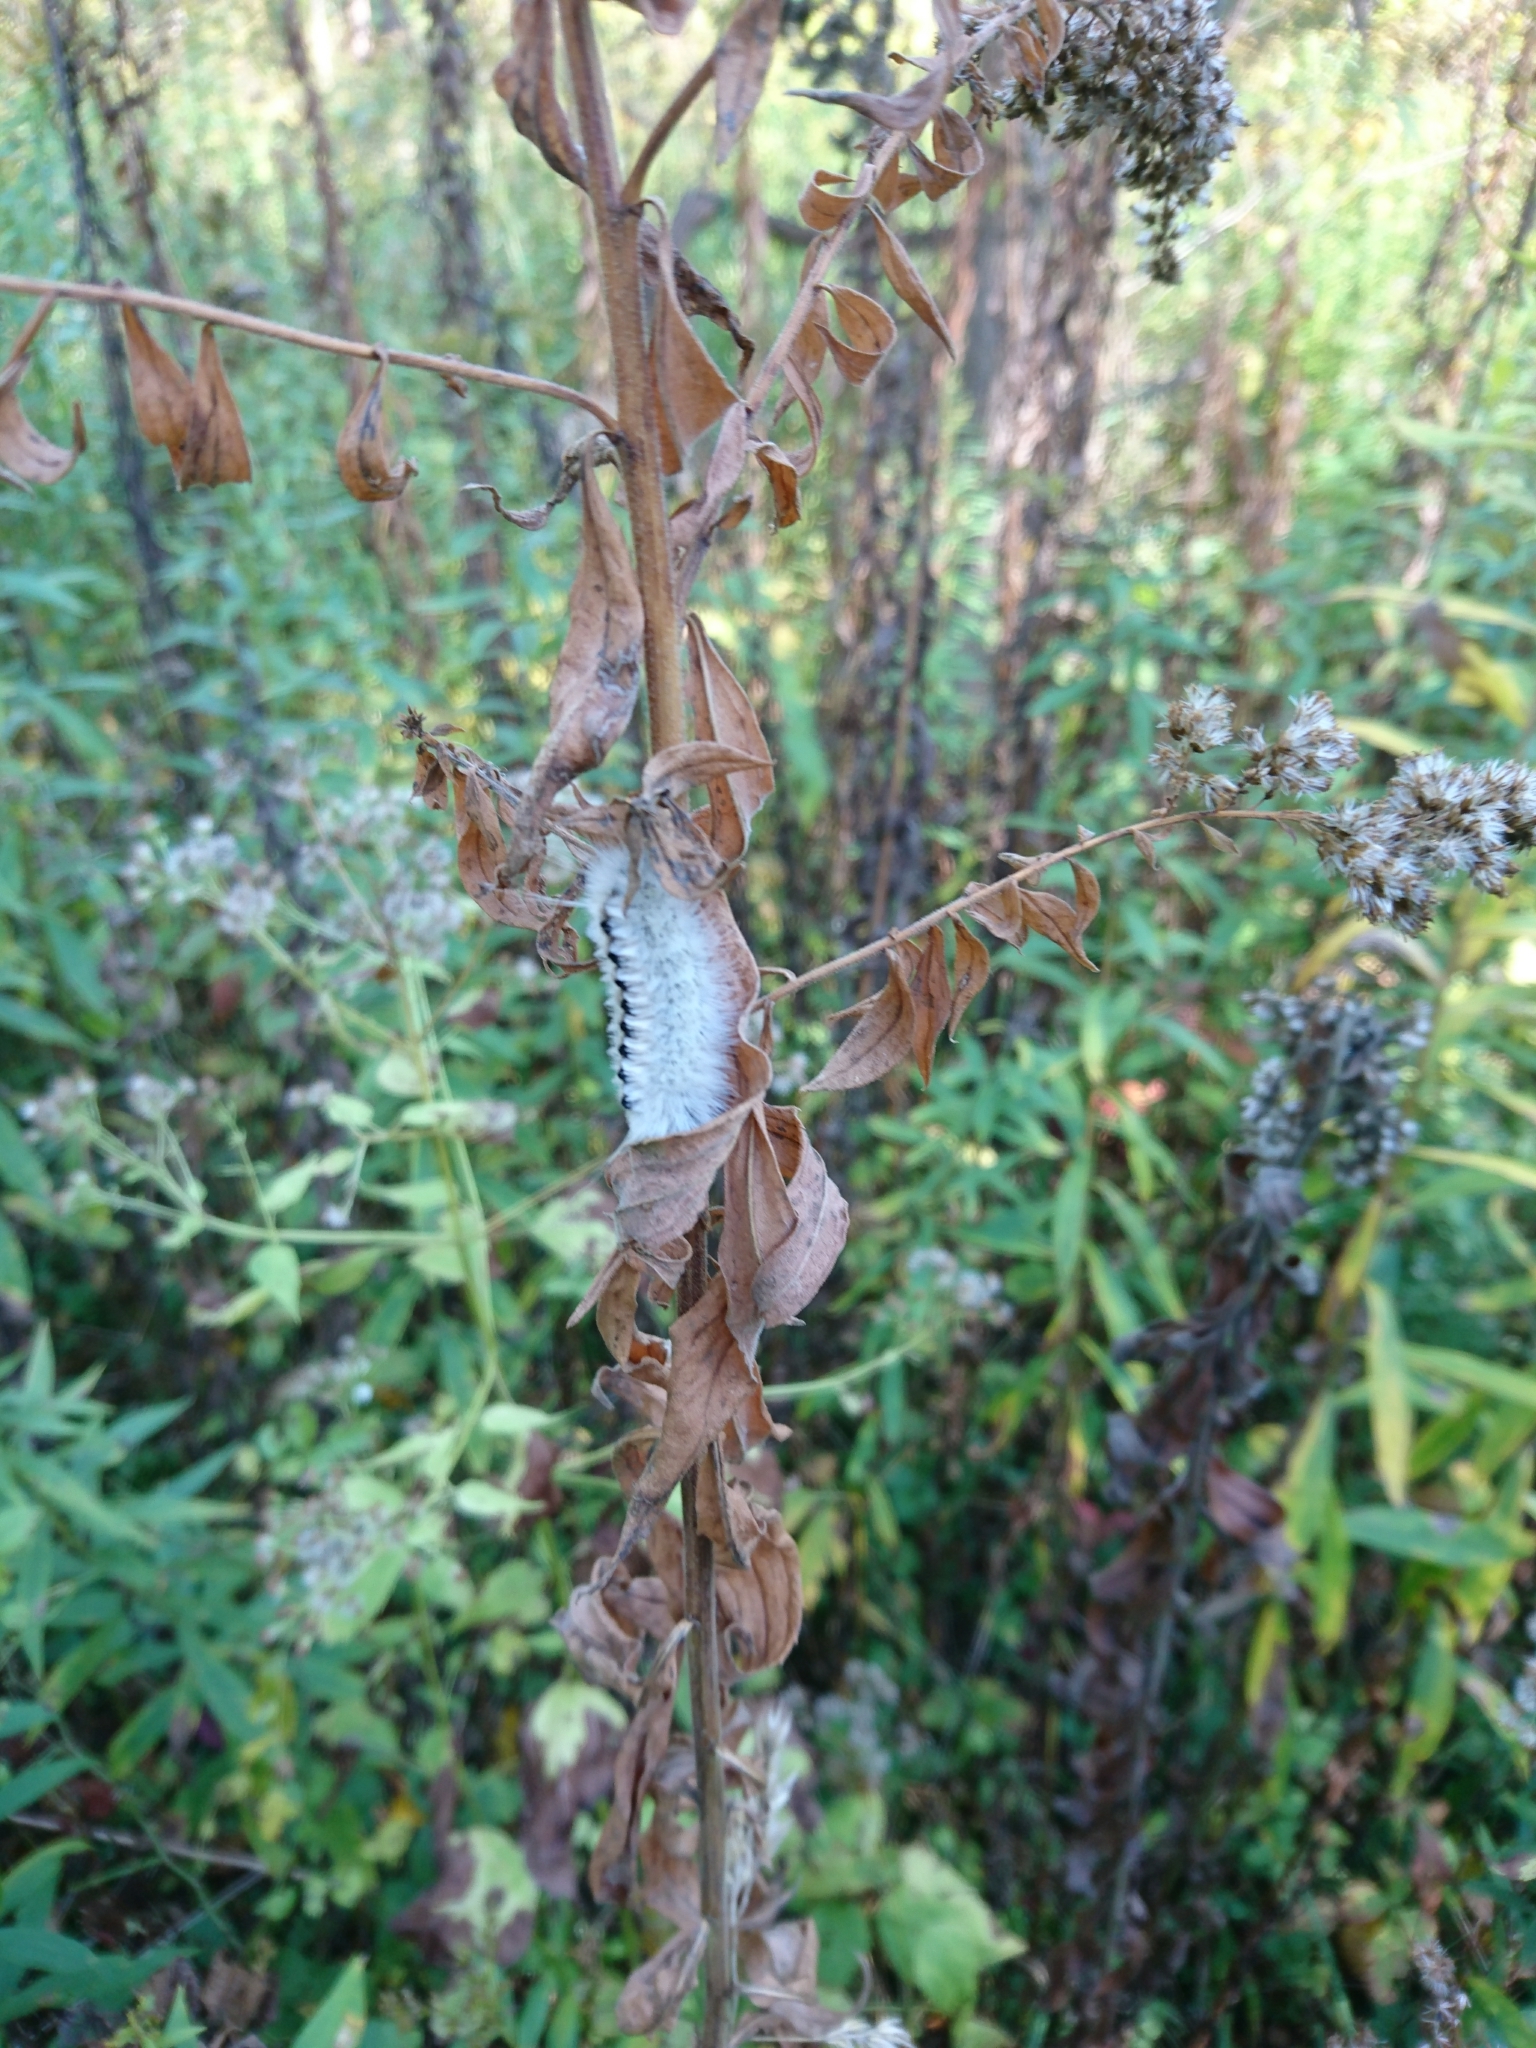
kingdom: Animalia
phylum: Arthropoda
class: Insecta
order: Lepidoptera
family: Erebidae
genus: Lophocampa
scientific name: Lophocampa caryae
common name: Hickory tussock moth
